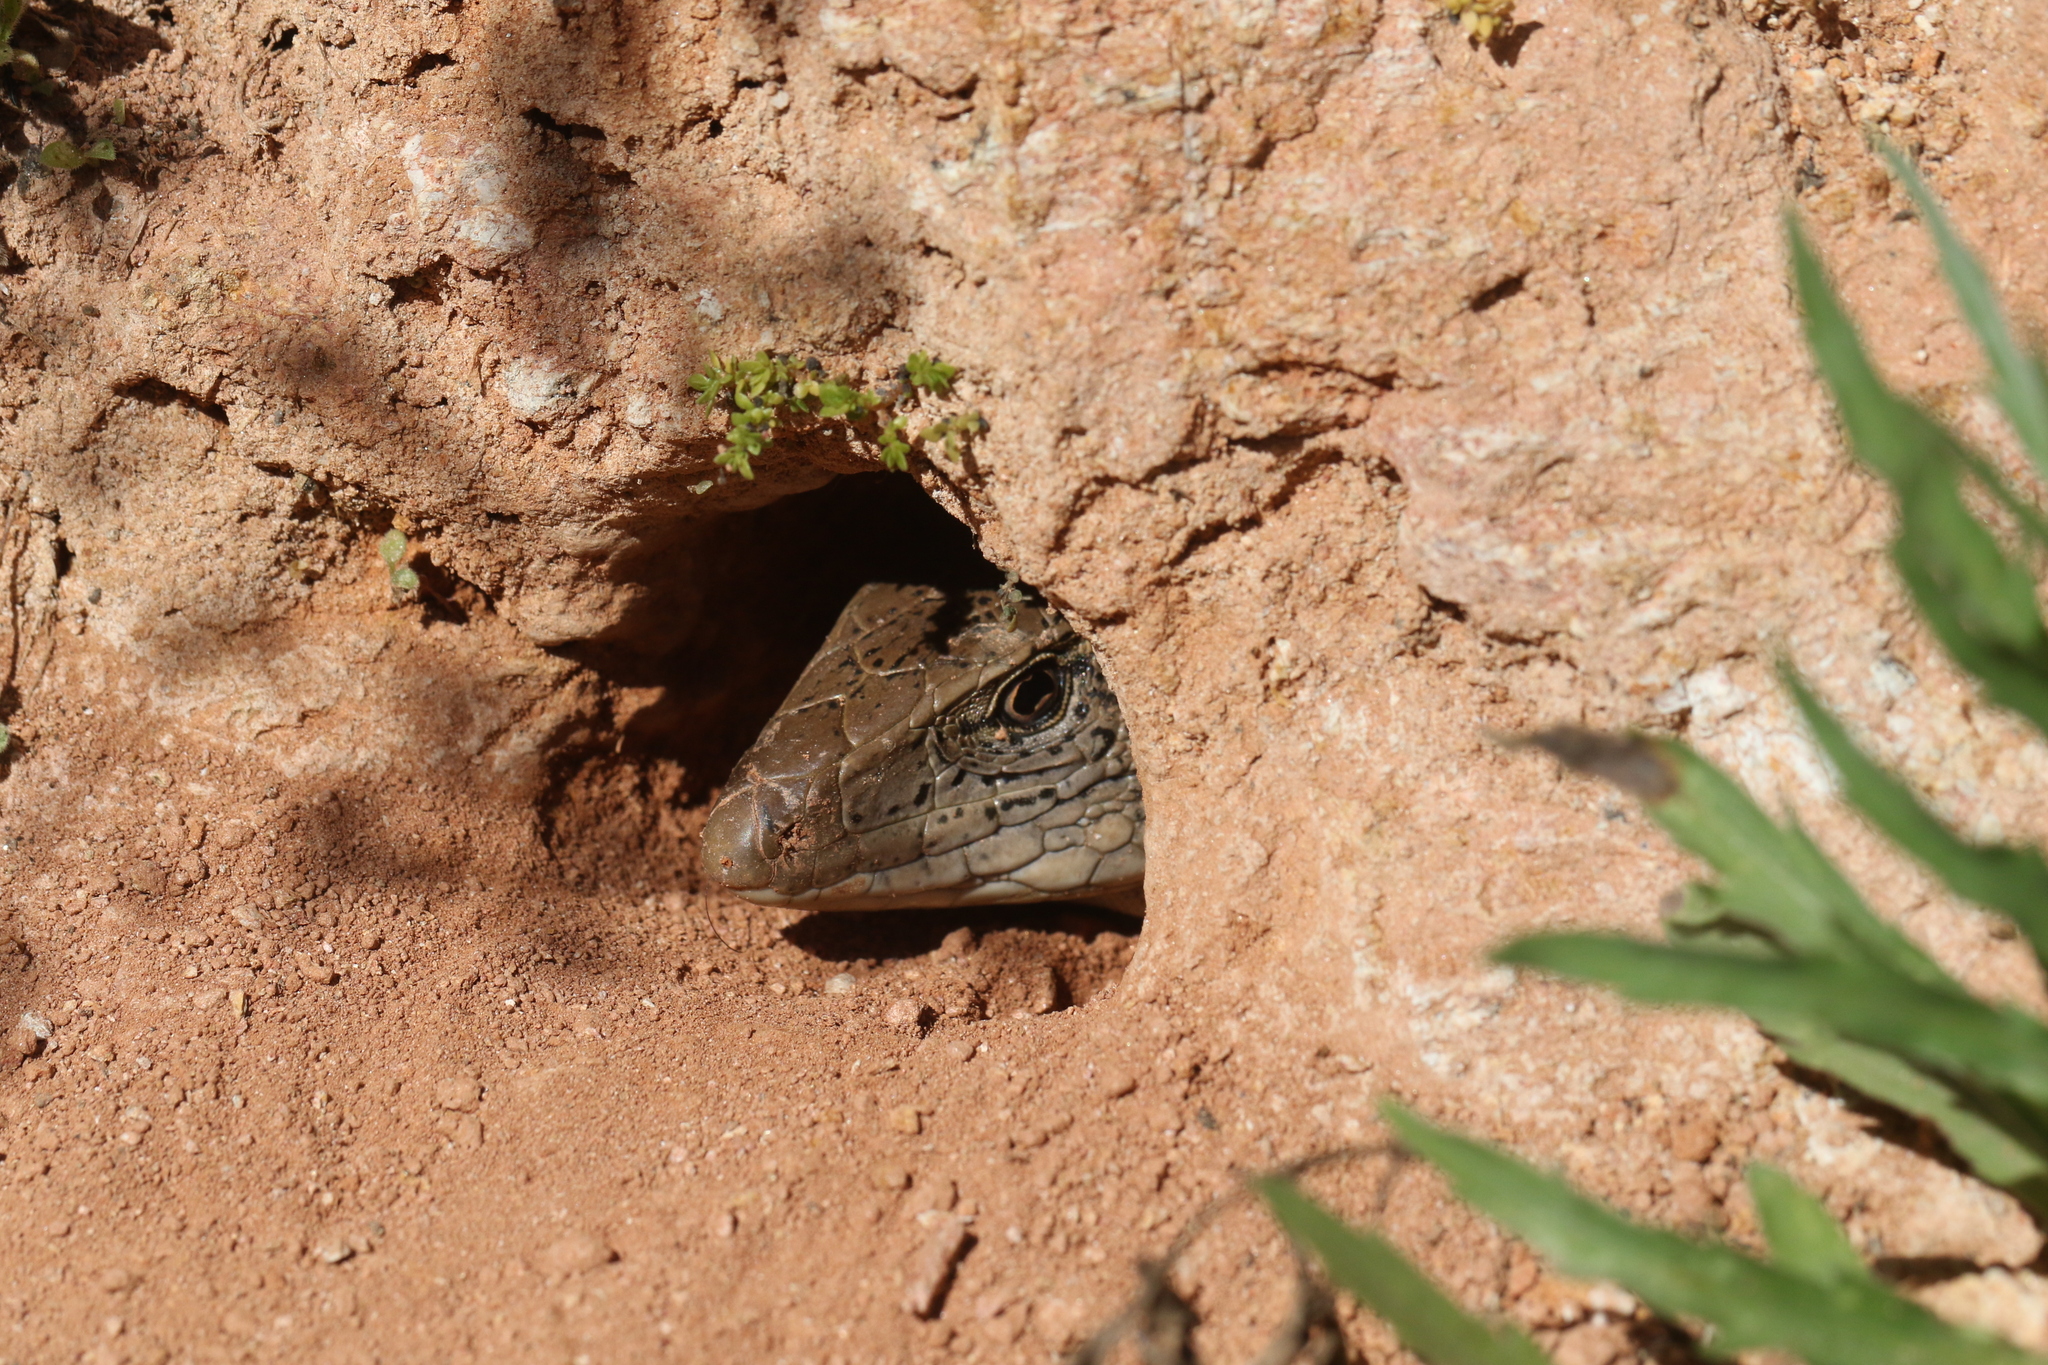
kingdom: Animalia
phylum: Chordata
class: Squamata
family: Teiidae
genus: Ameiva
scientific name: Ameiva ameiva
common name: Giant ameiva
